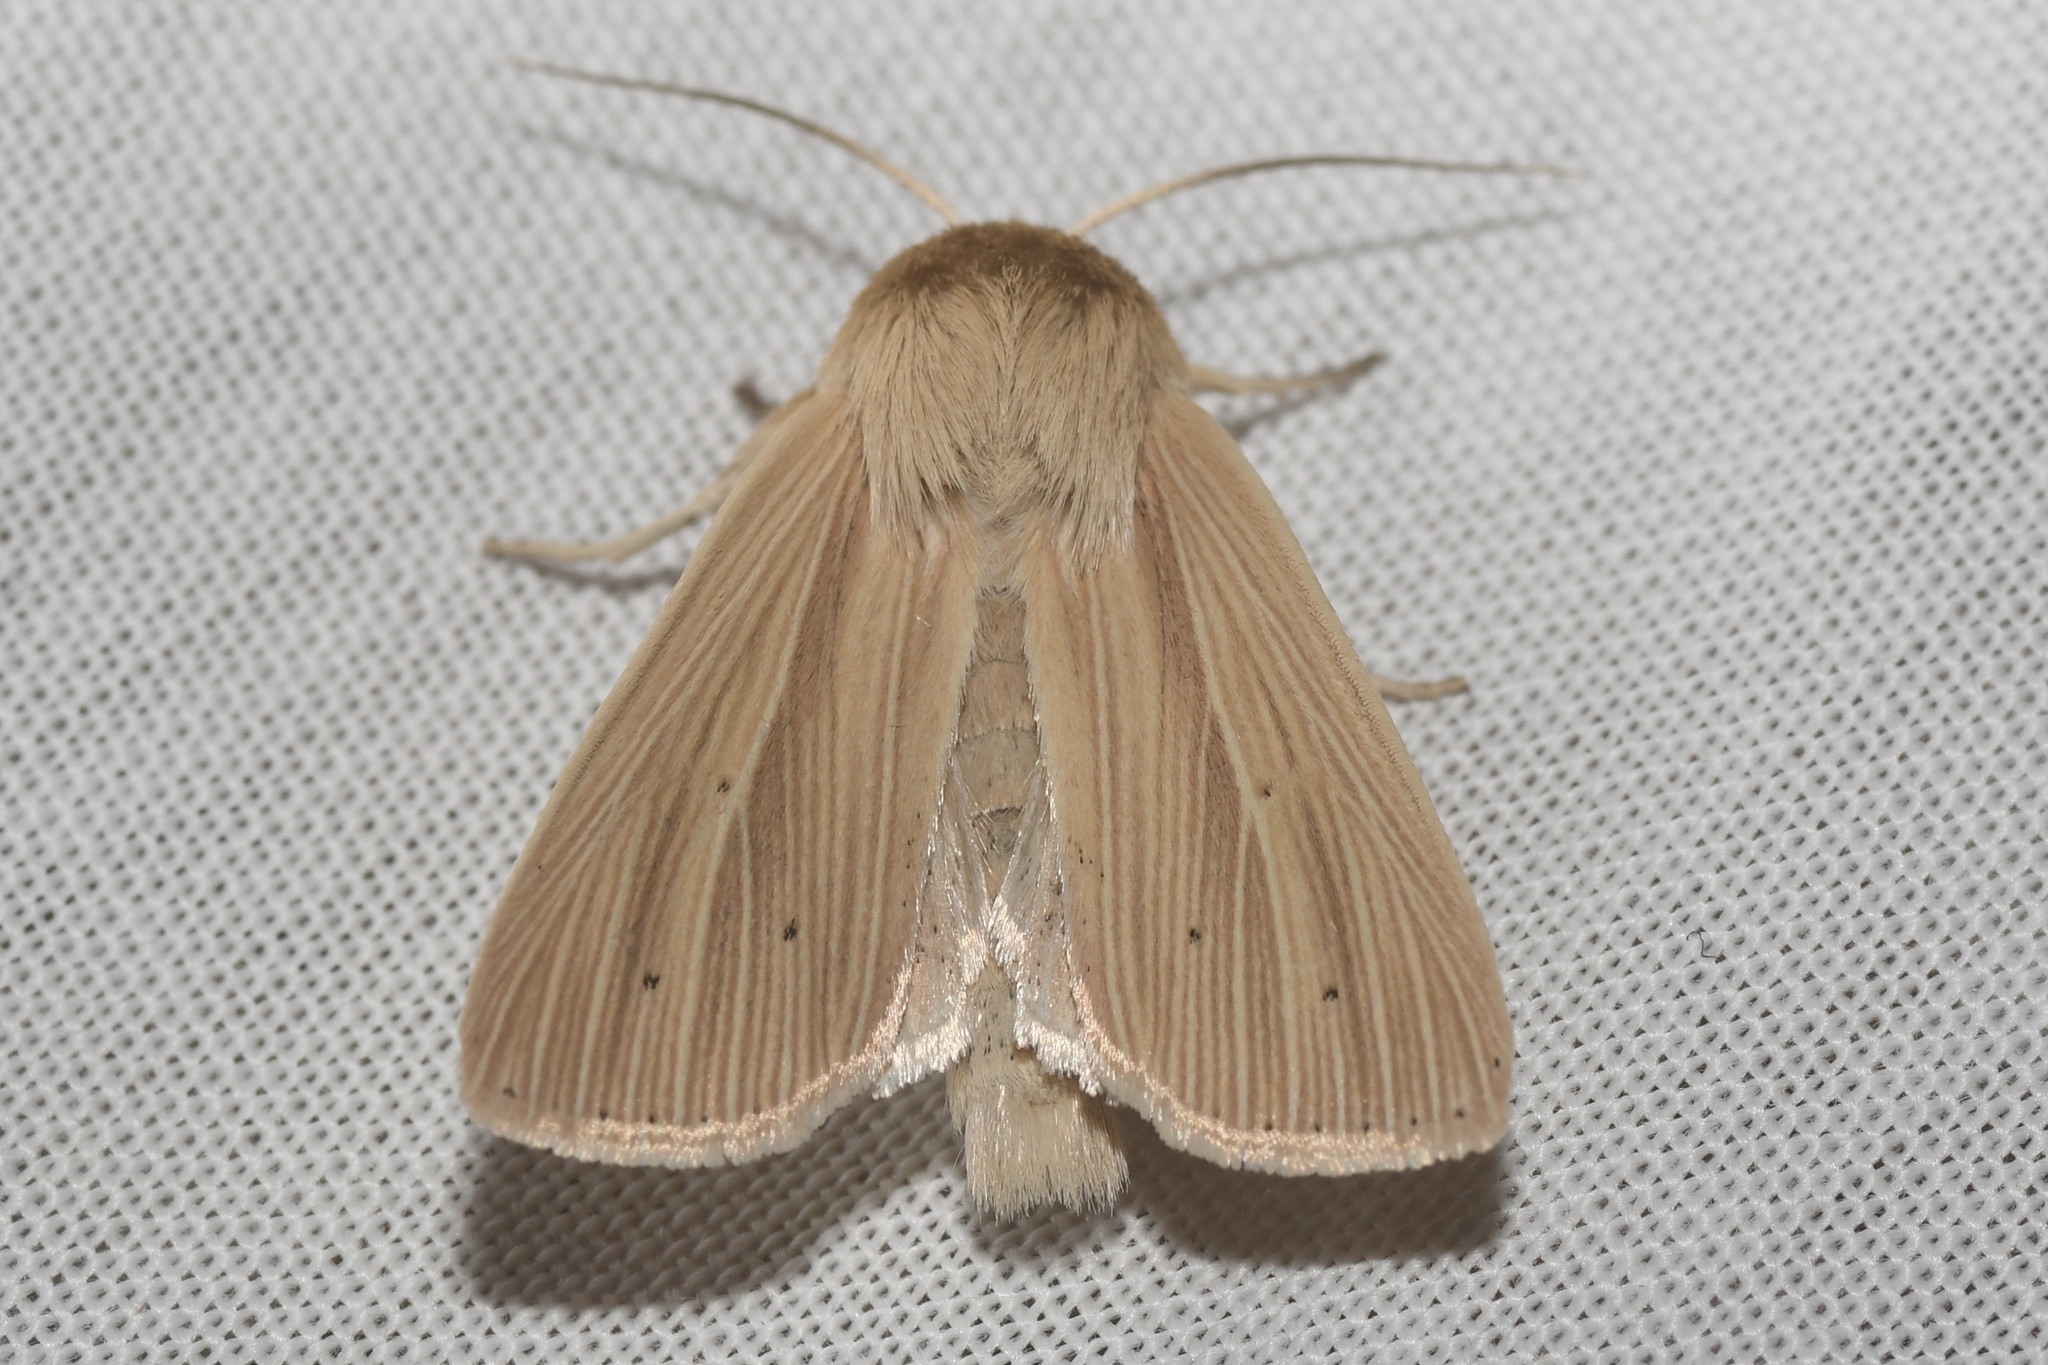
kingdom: Animalia
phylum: Arthropoda
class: Insecta
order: Lepidoptera
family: Noctuidae
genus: Mythimna
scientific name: Mythimna oxygala
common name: Lesser wainscot
